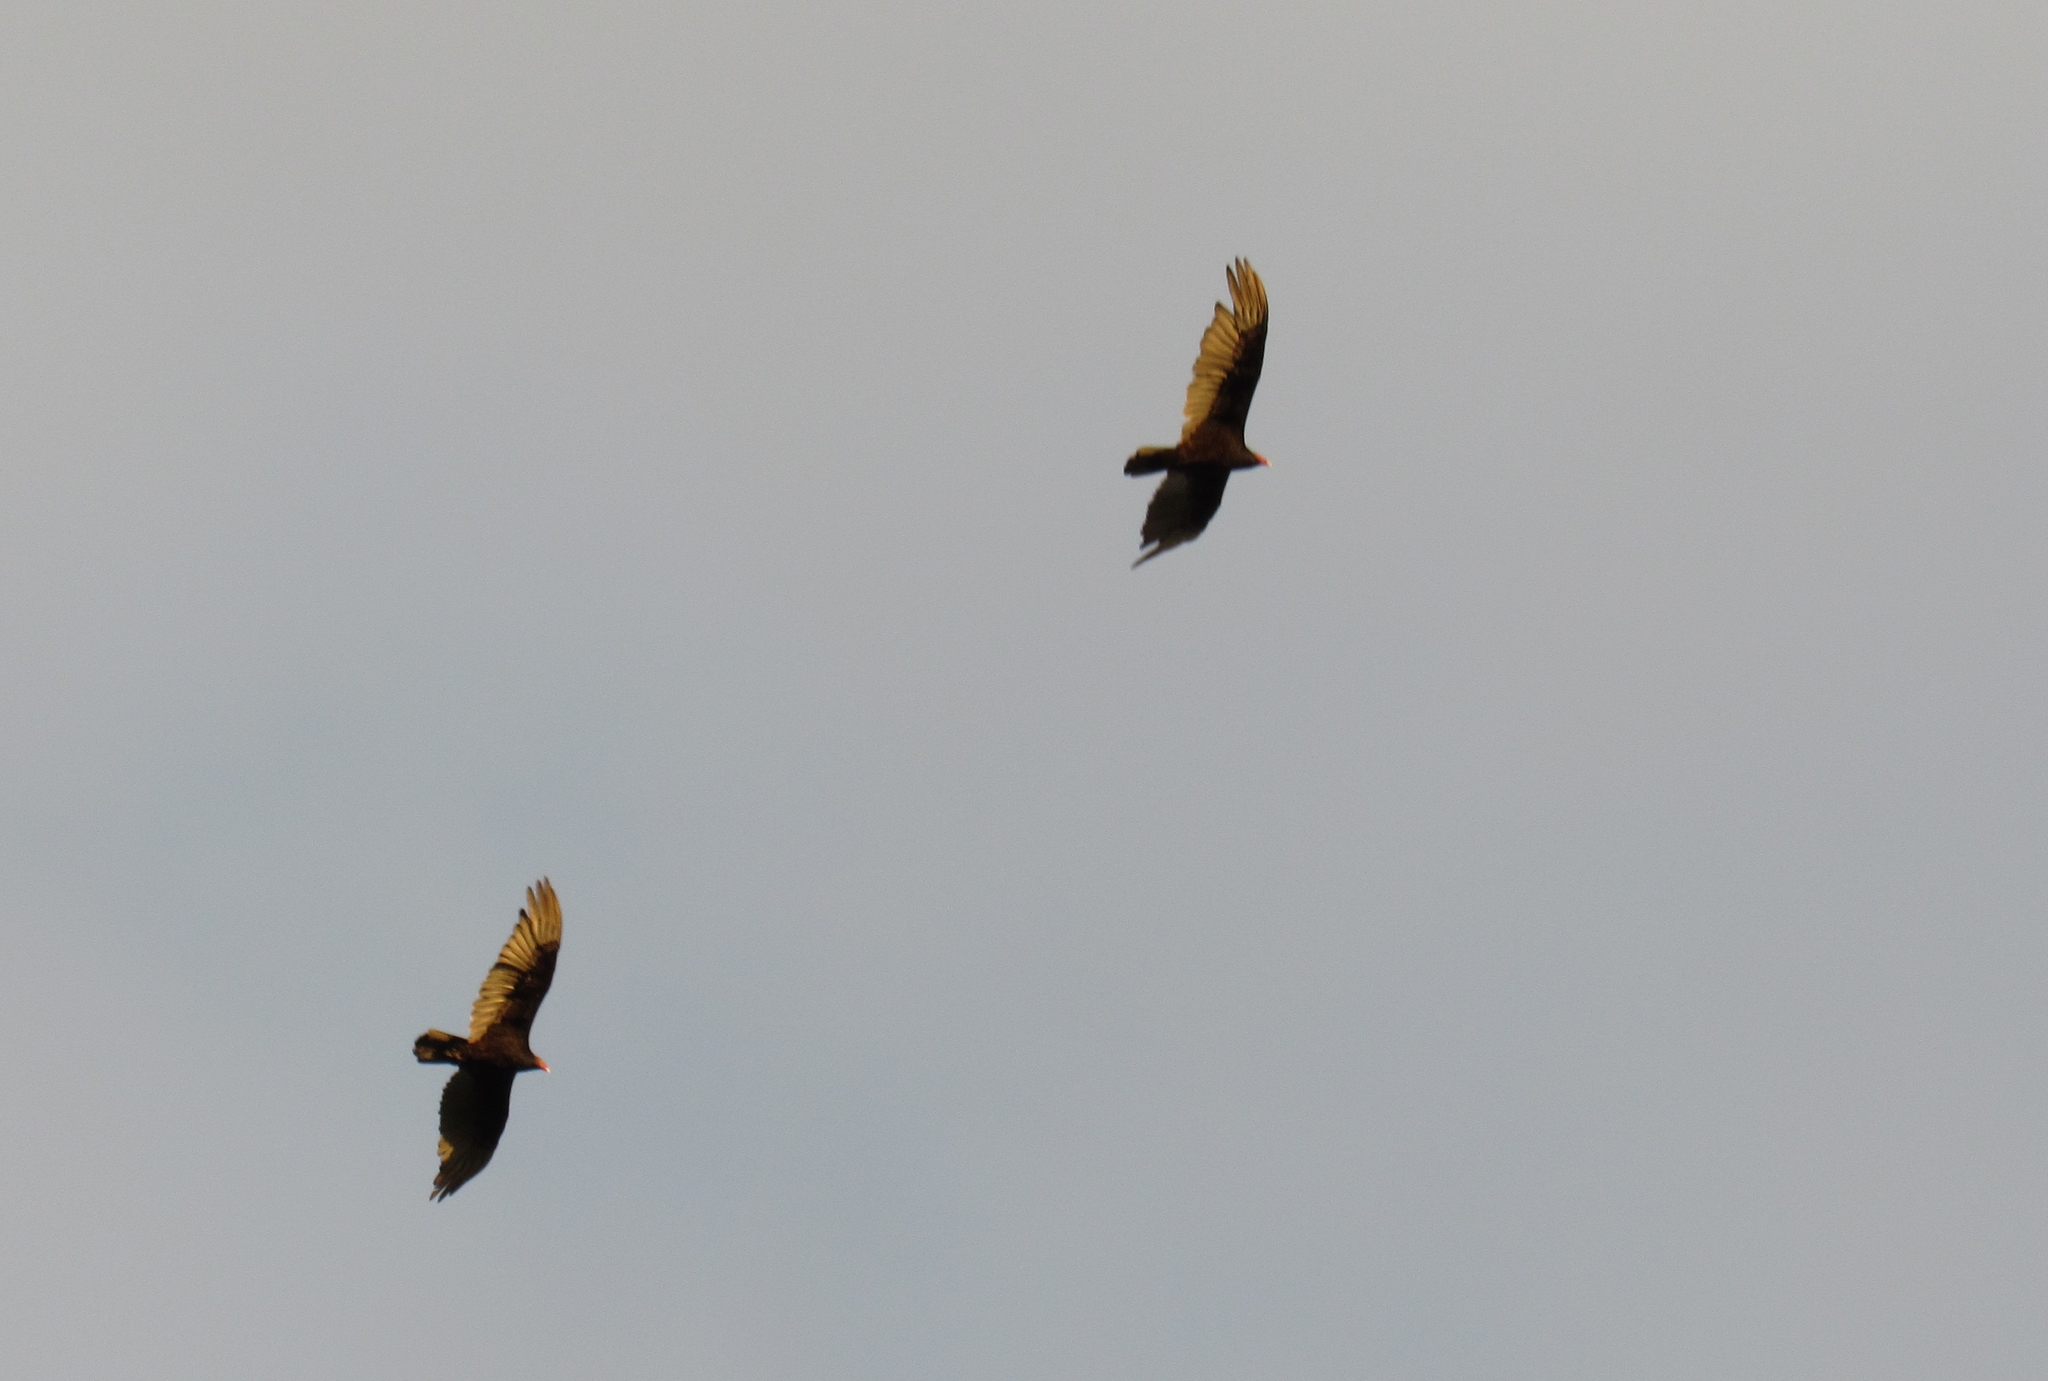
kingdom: Animalia
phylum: Chordata
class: Aves
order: Accipitriformes
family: Cathartidae
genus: Cathartes
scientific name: Cathartes aura
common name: Turkey vulture
